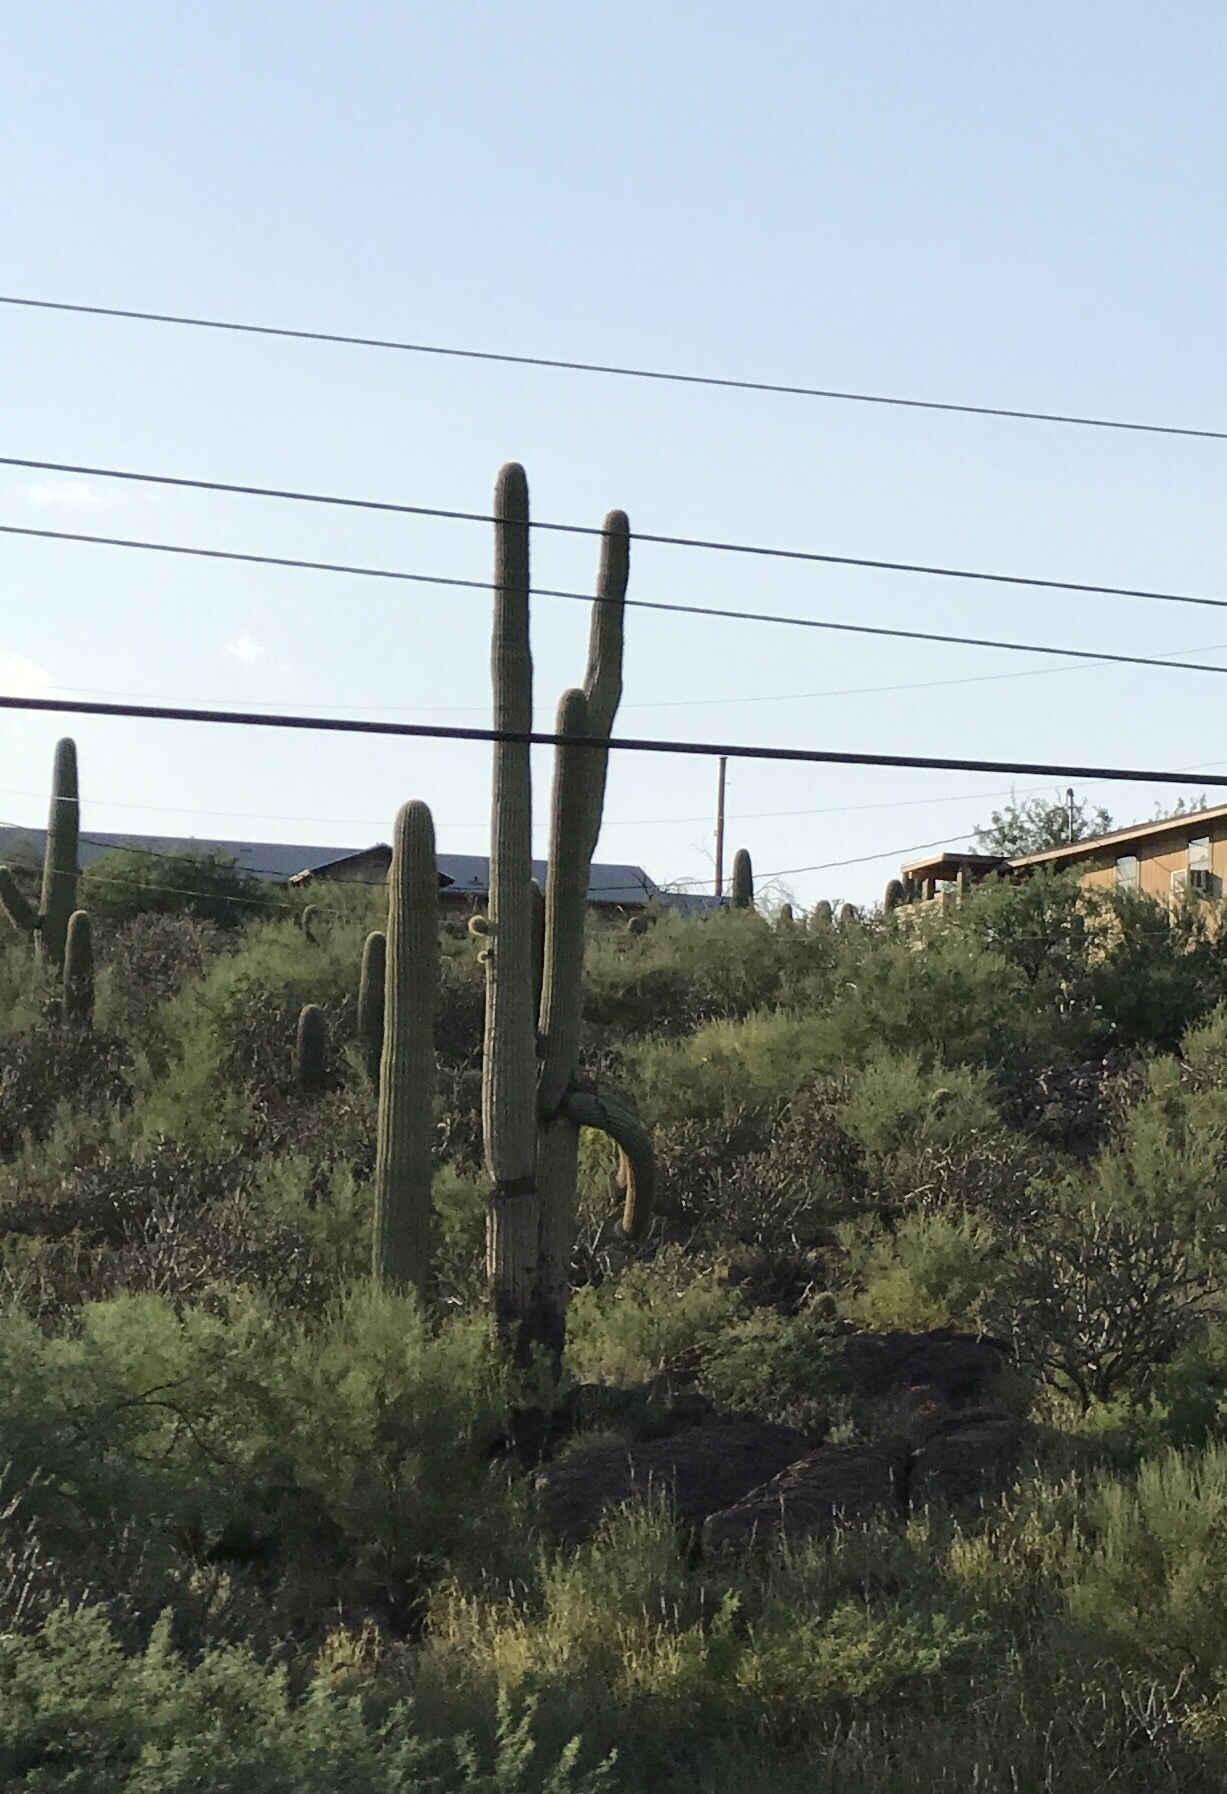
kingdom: Plantae
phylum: Tracheophyta
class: Magnoliopsida
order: Caryophyllales
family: Cactaceae
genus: Carnegiea
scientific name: Carnegiea gigantea
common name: Saguaro
